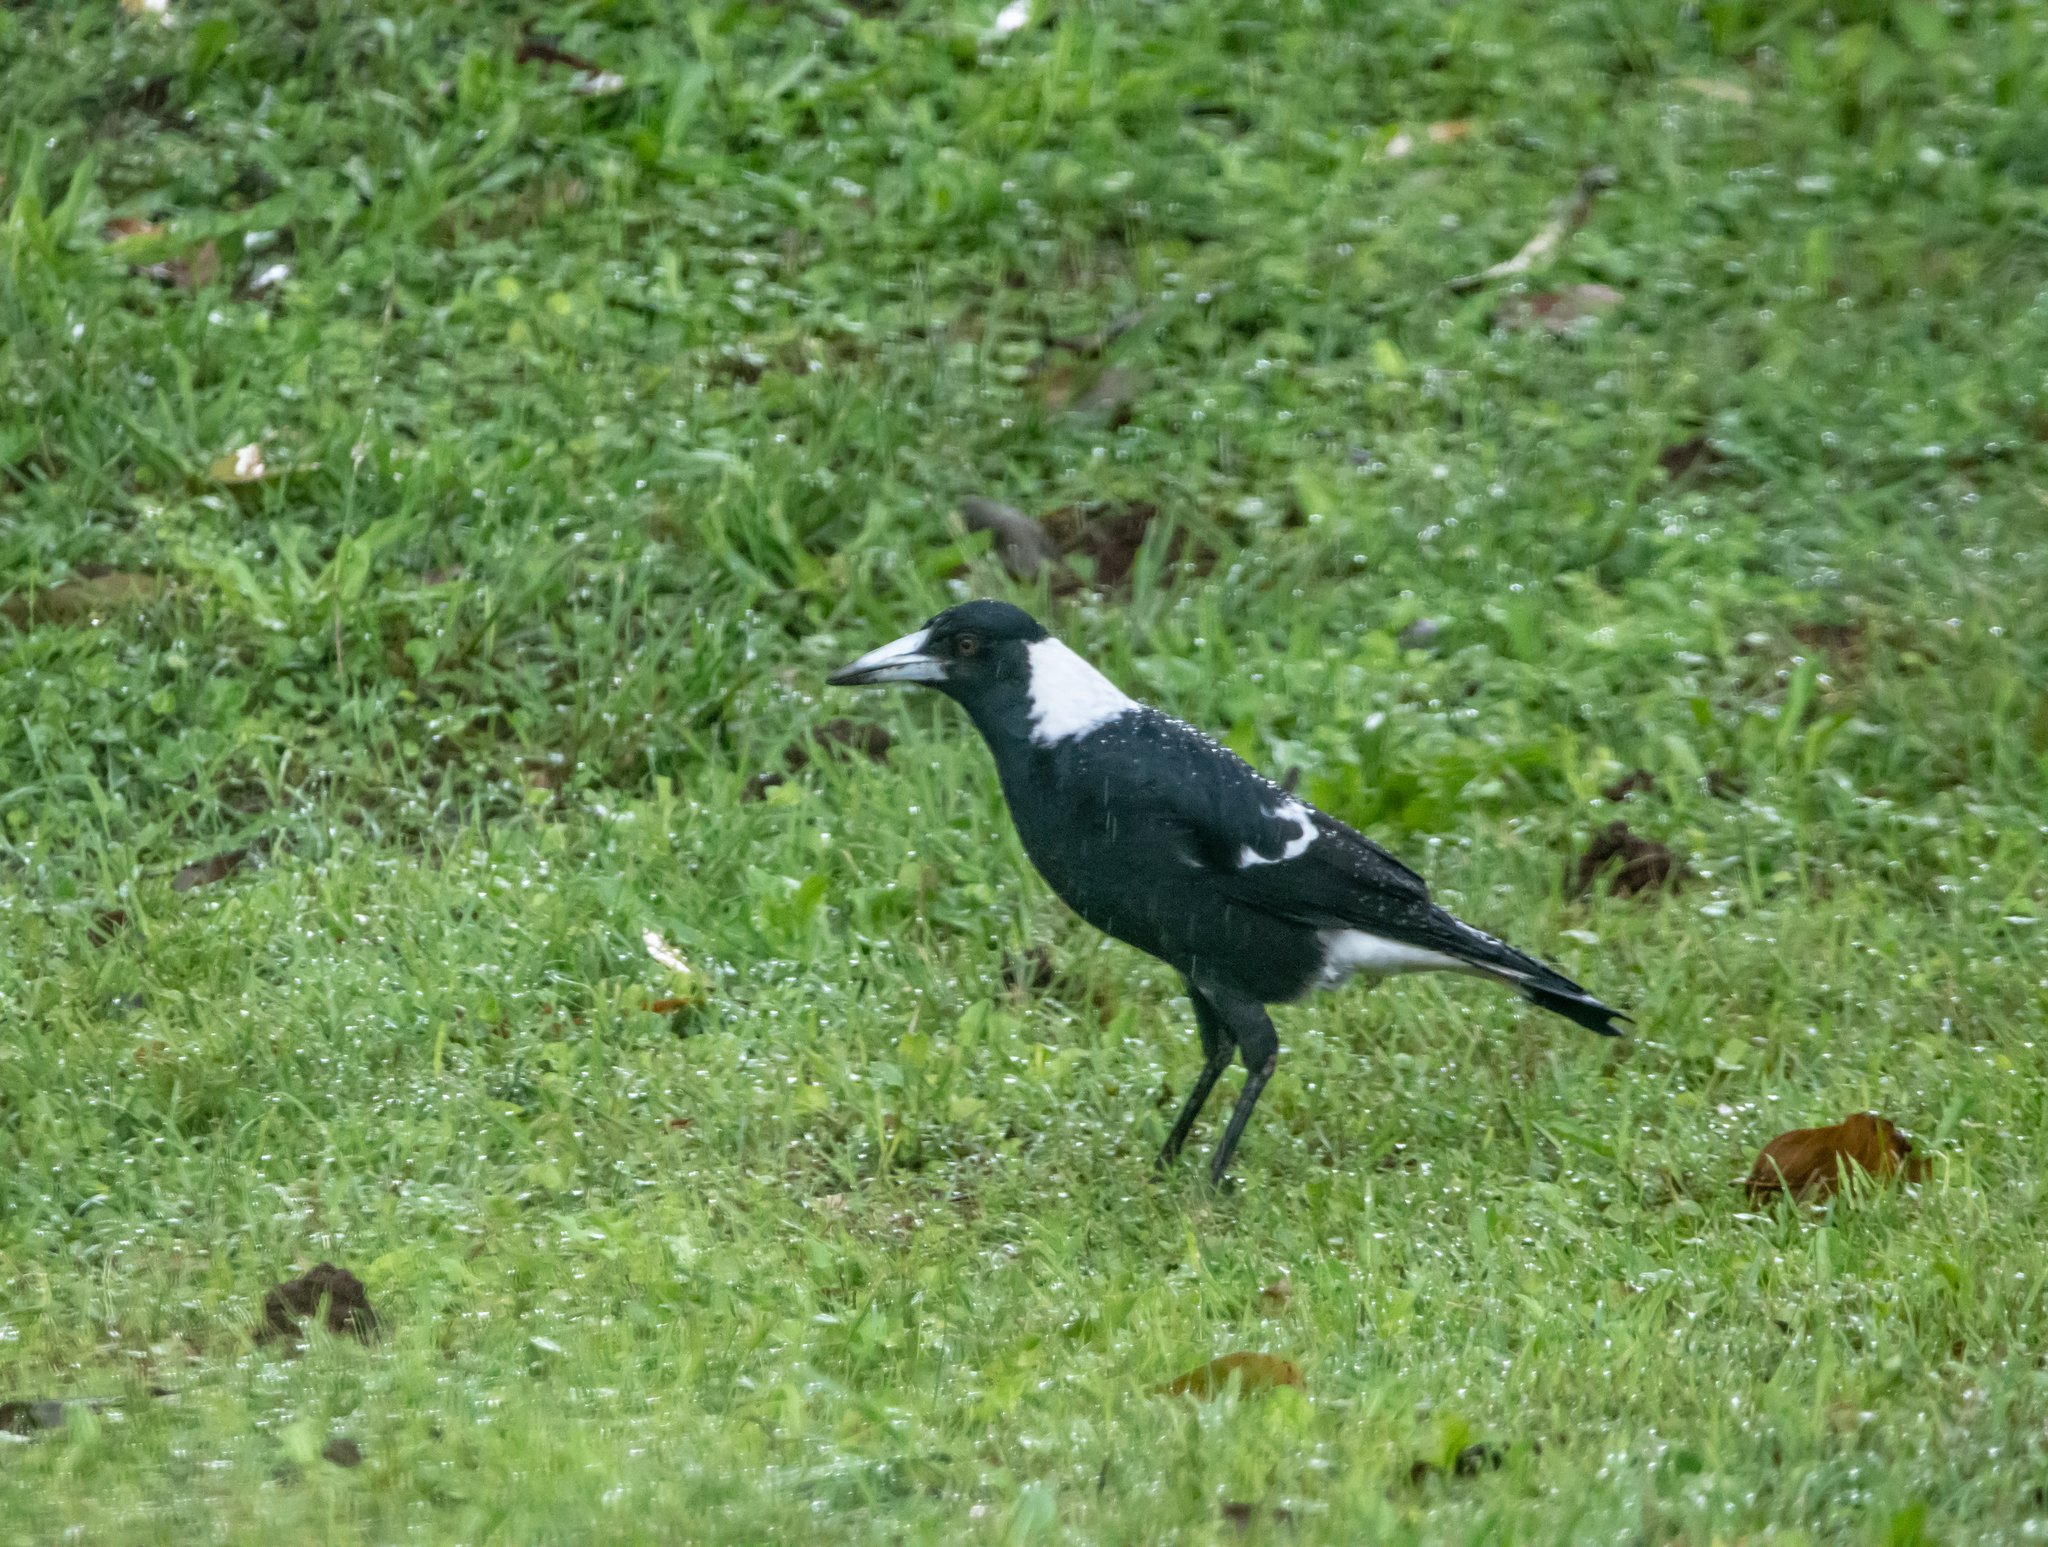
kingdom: Animalia
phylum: Chordata
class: Aves
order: Passeriformes
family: Cracticidae
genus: Gymnorhina
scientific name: Gymnorhina tibicen
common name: Australian magpie
